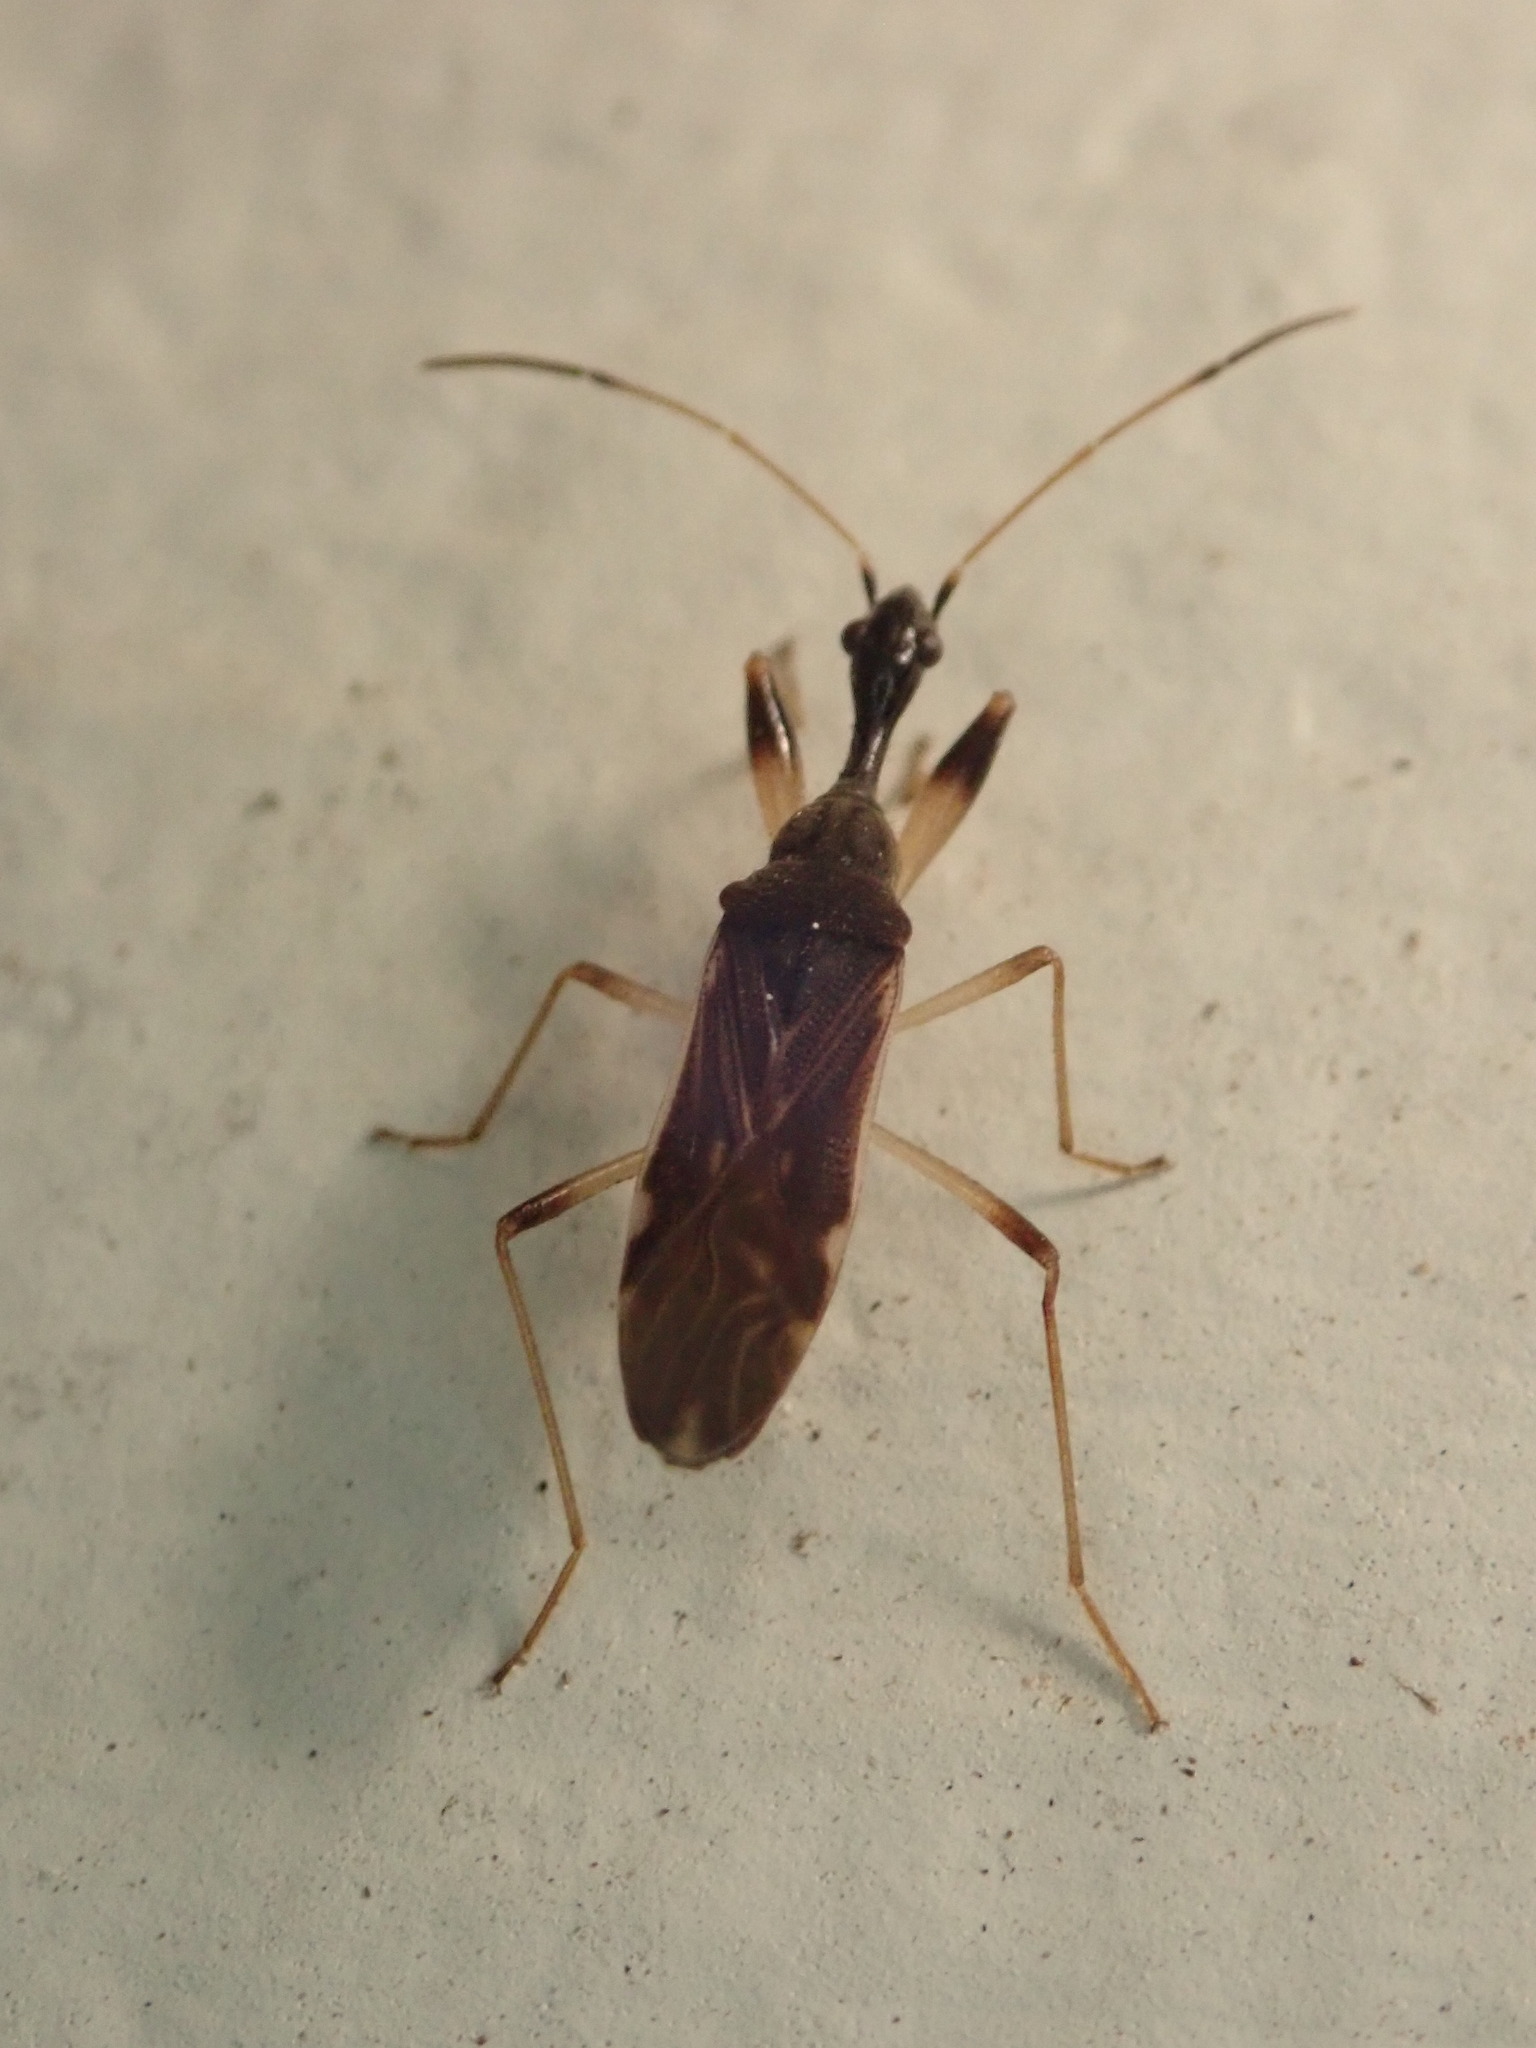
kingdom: Animalia
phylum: Arthropoda
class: Insecta
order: Hemiptera
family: Rhyparochromidae
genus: Myodocha
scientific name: Myodocha serripes
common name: Long-necked seed bug
